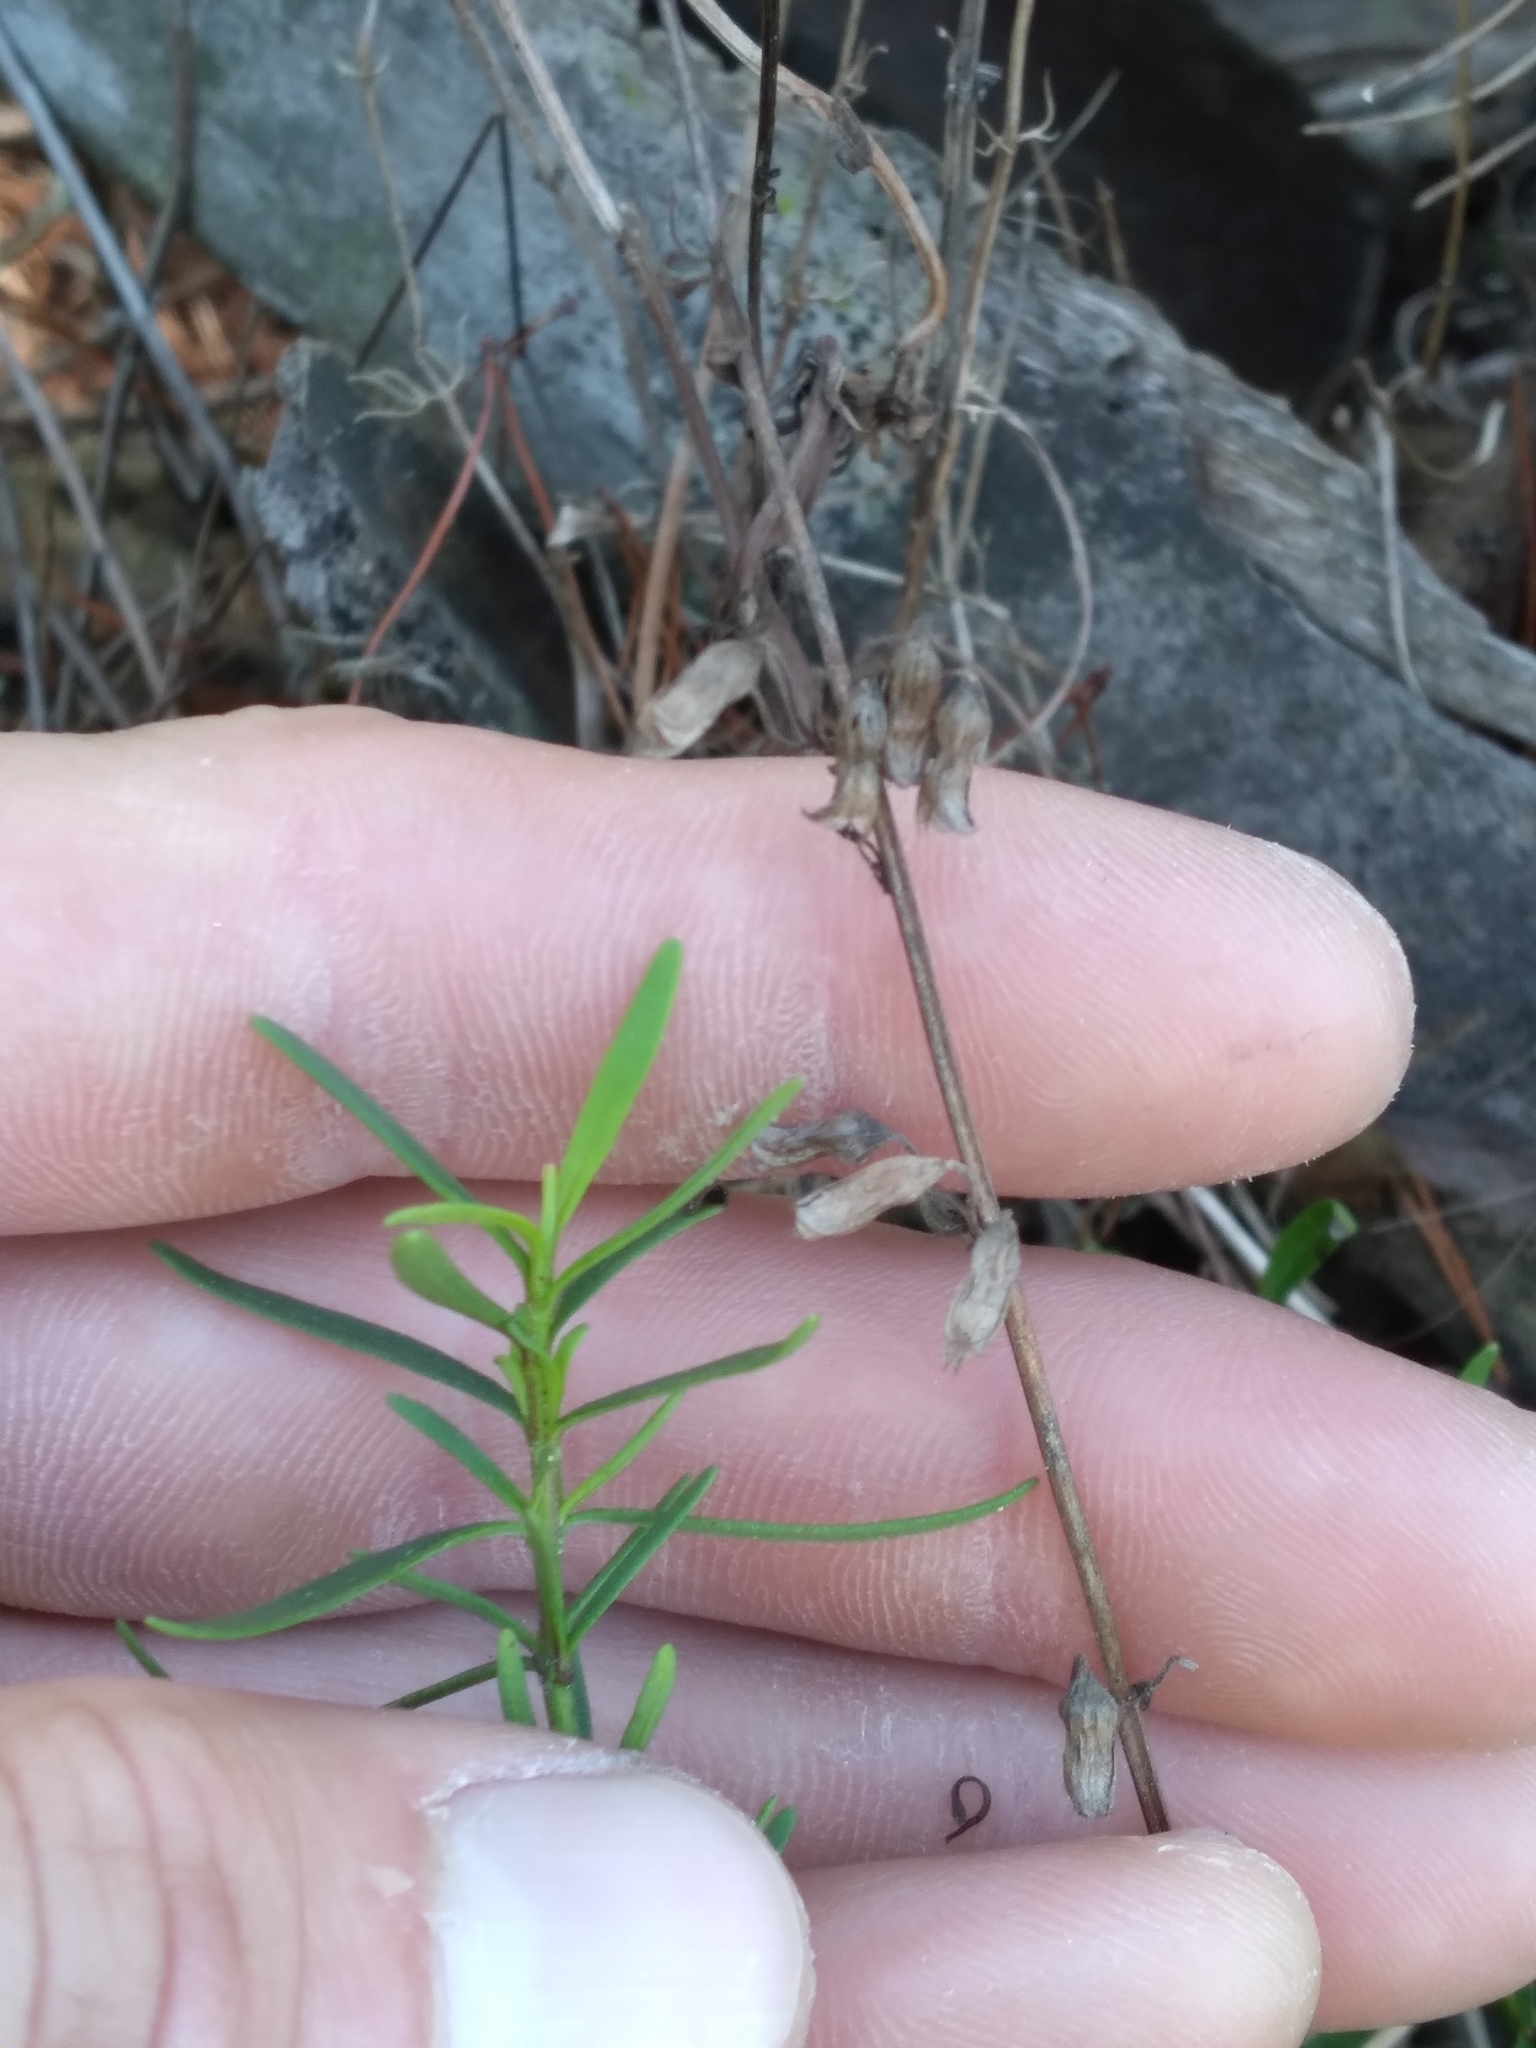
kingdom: Plantae
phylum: Tracheophyta
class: Magnoliopsida
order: Lamiales
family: Lamiaceae
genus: Dicerandra
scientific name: Dicerandra frutescens
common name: Scrub-mint
